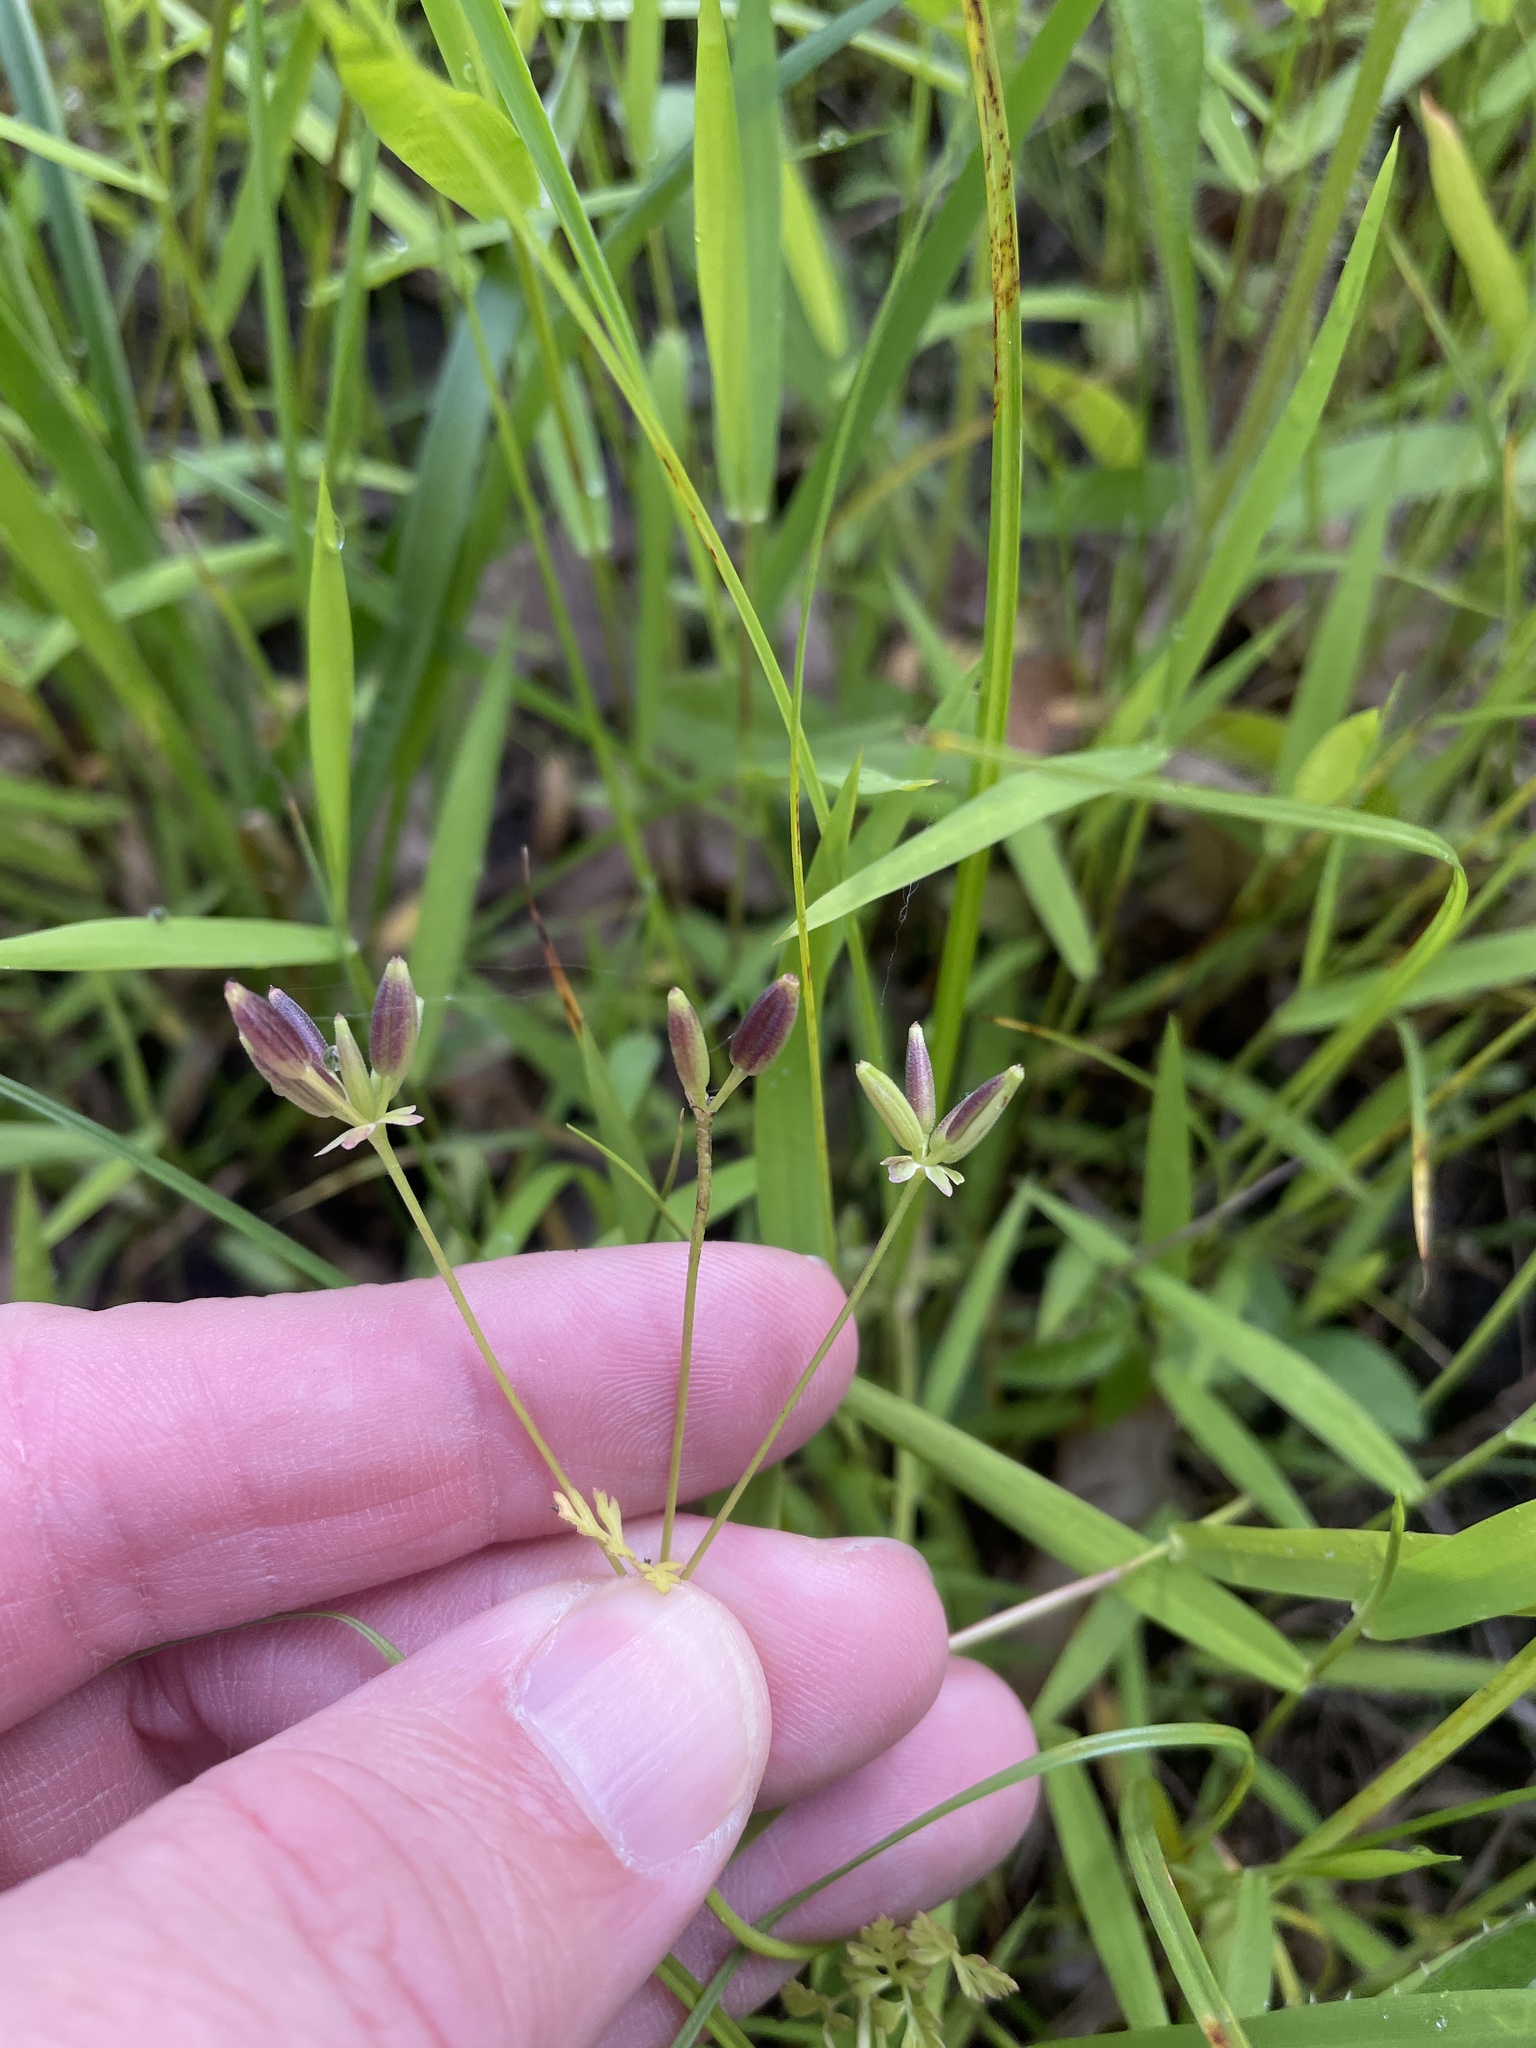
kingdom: Plantae
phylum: Tracheophyta
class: Magnoliopsida
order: Apiales
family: Apiaceae
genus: Chaerophyllum
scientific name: Chaerophyllum tainturieri
